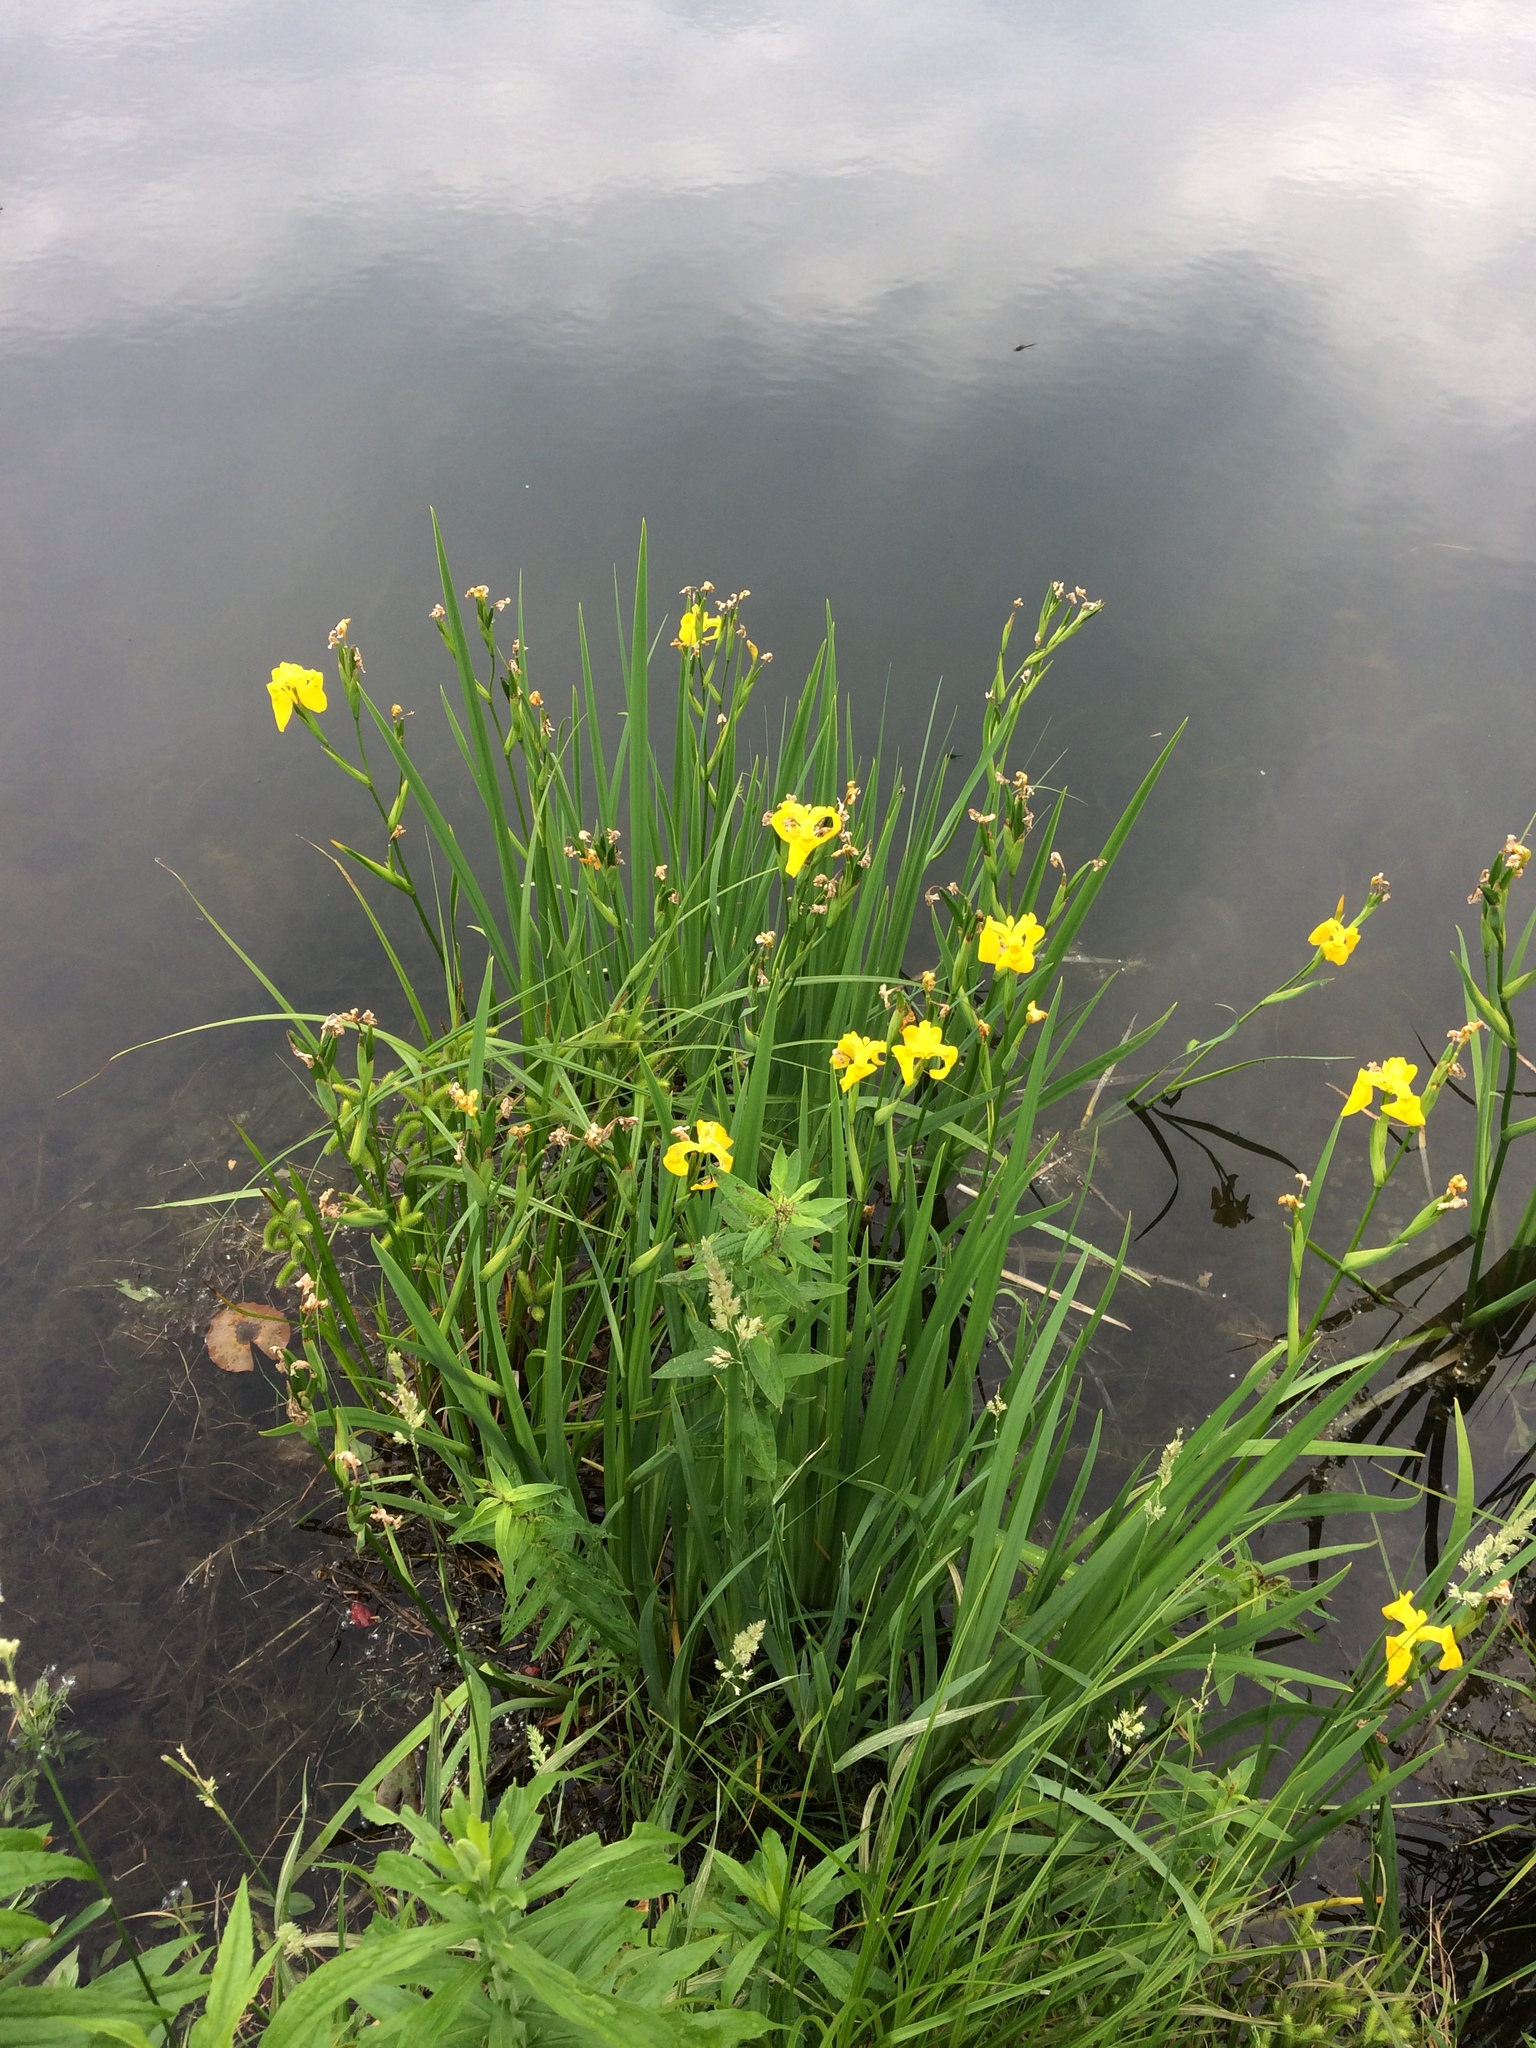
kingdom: Plantae
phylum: Tracheophyta
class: Liliopsida
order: Asparagales
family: Iridaceae
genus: Iris
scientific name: Iris pseudacorus
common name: Yellow flag
